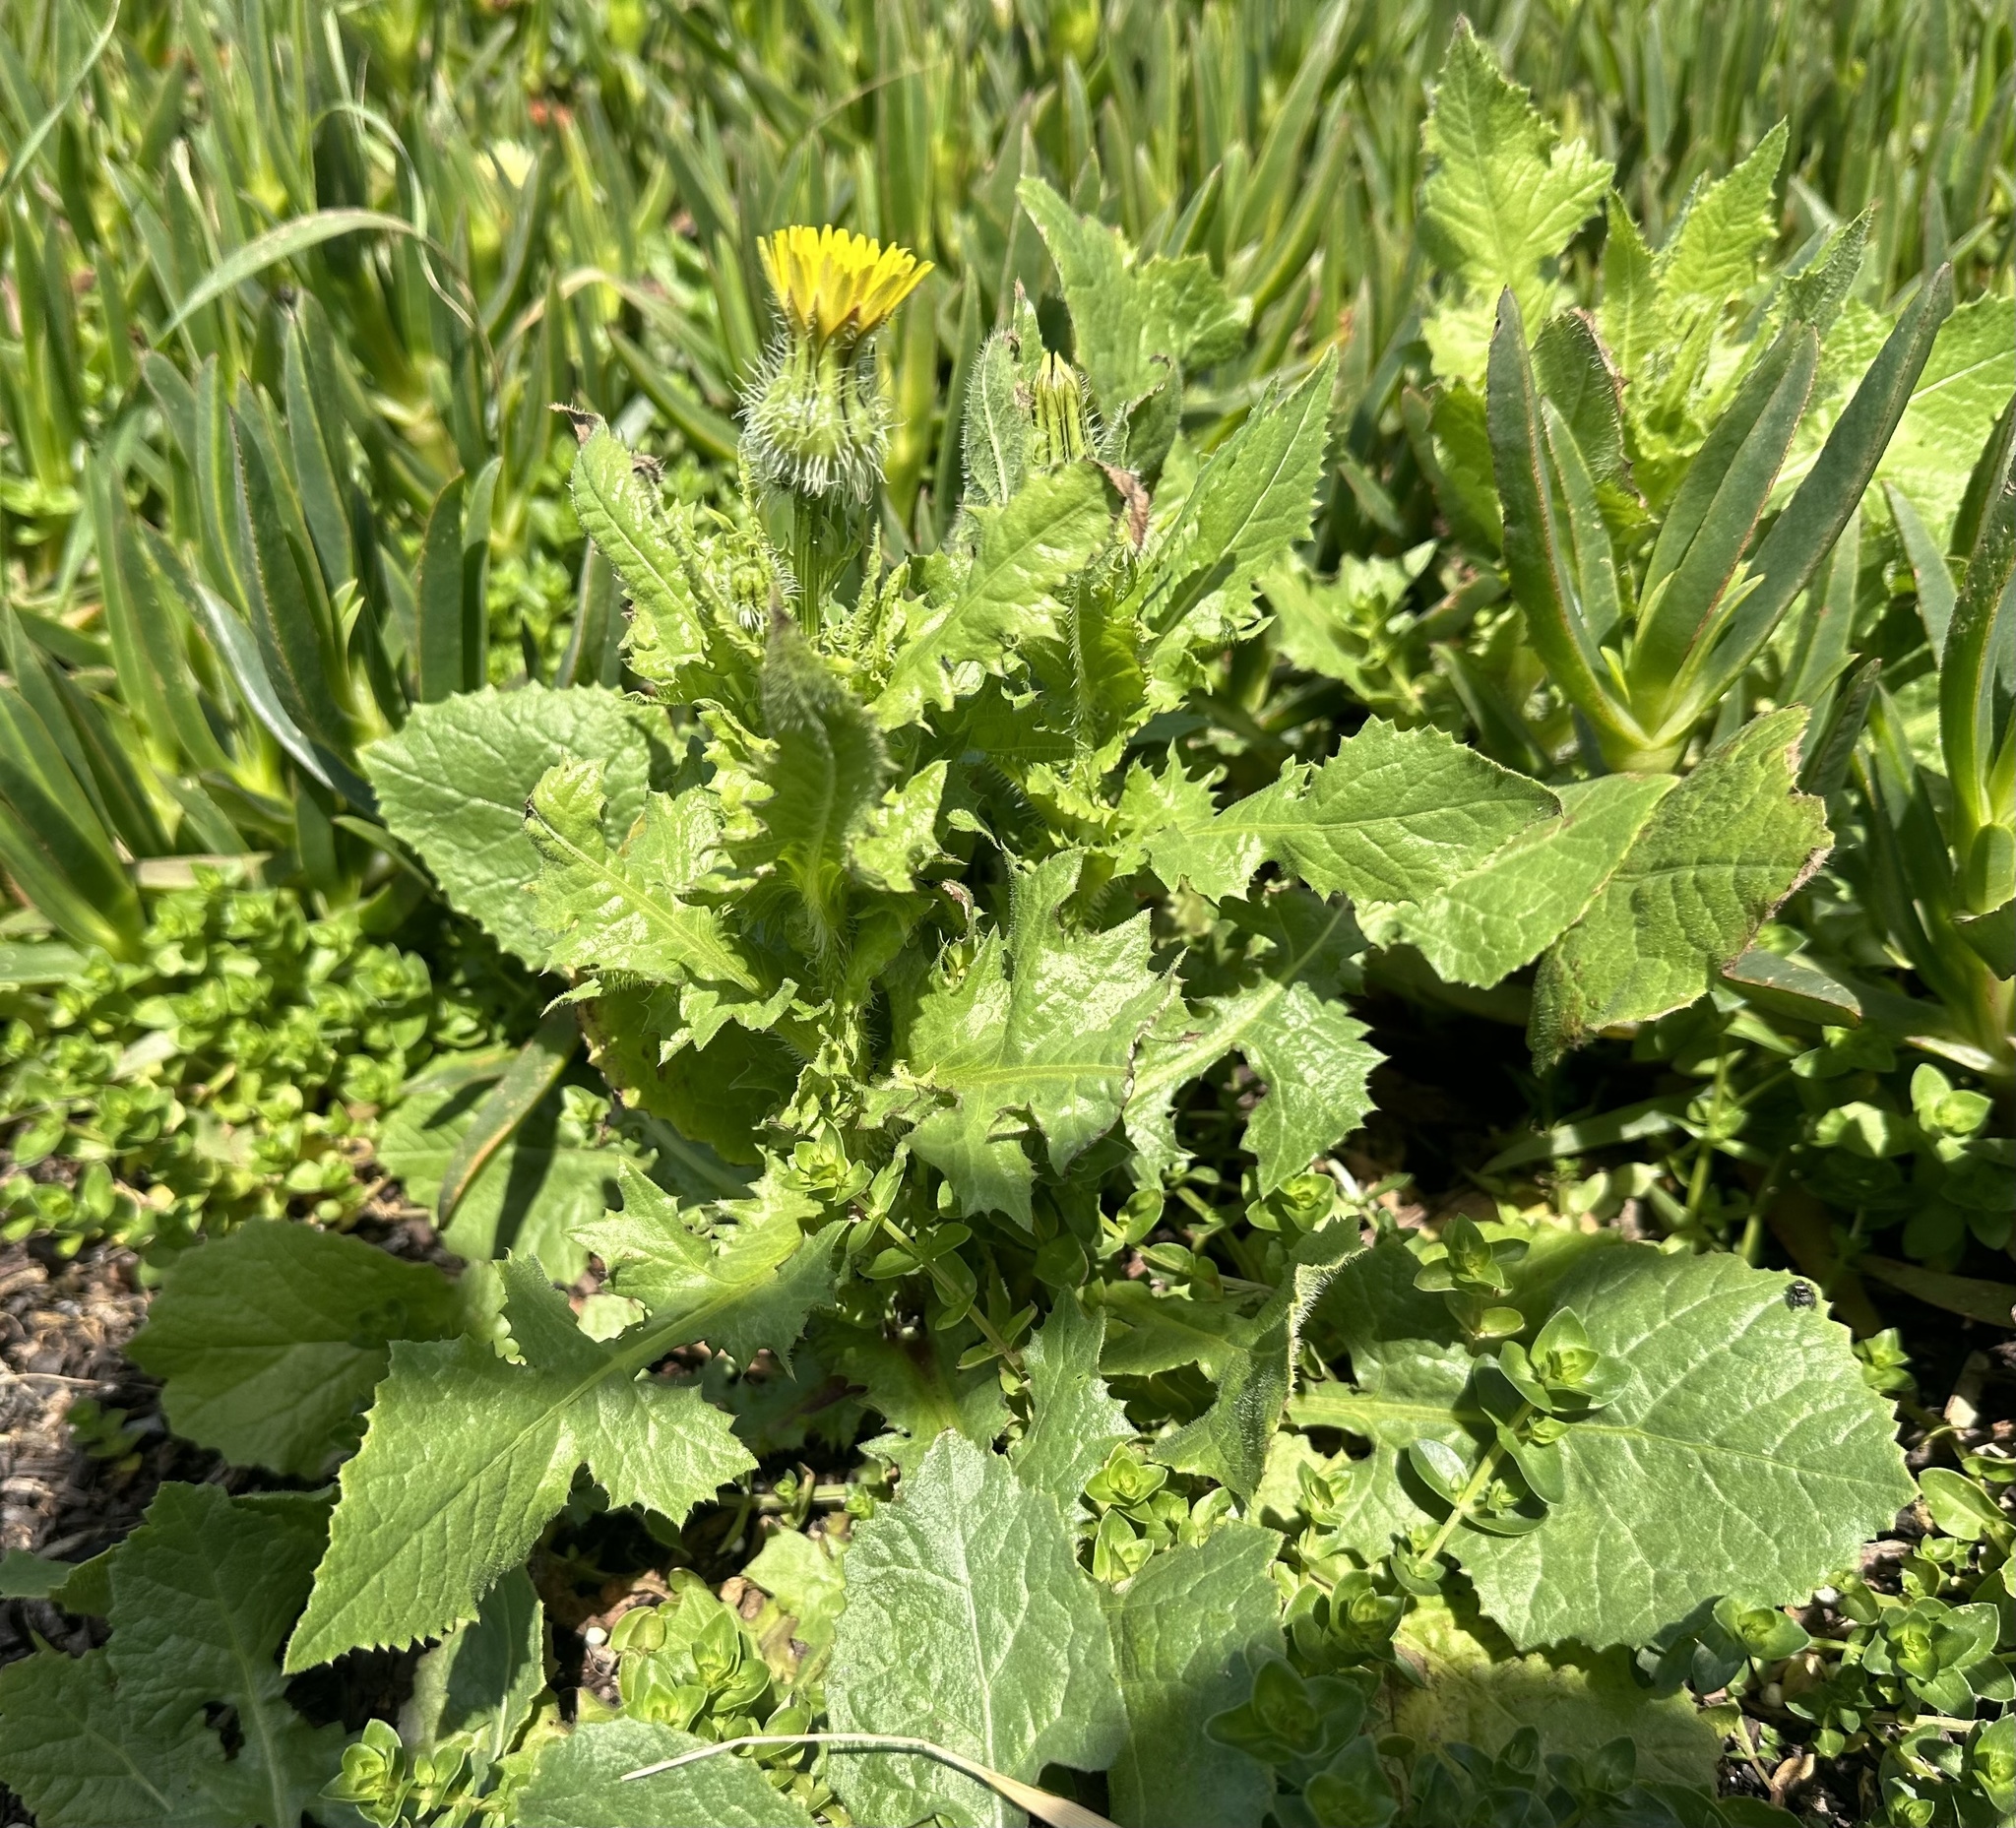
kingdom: Plantae
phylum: Tracheophyta
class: Magnoliopsida
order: Asterales
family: Asteraceae
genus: Urospermum
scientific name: Urospermum picroides
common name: False hawkbit
